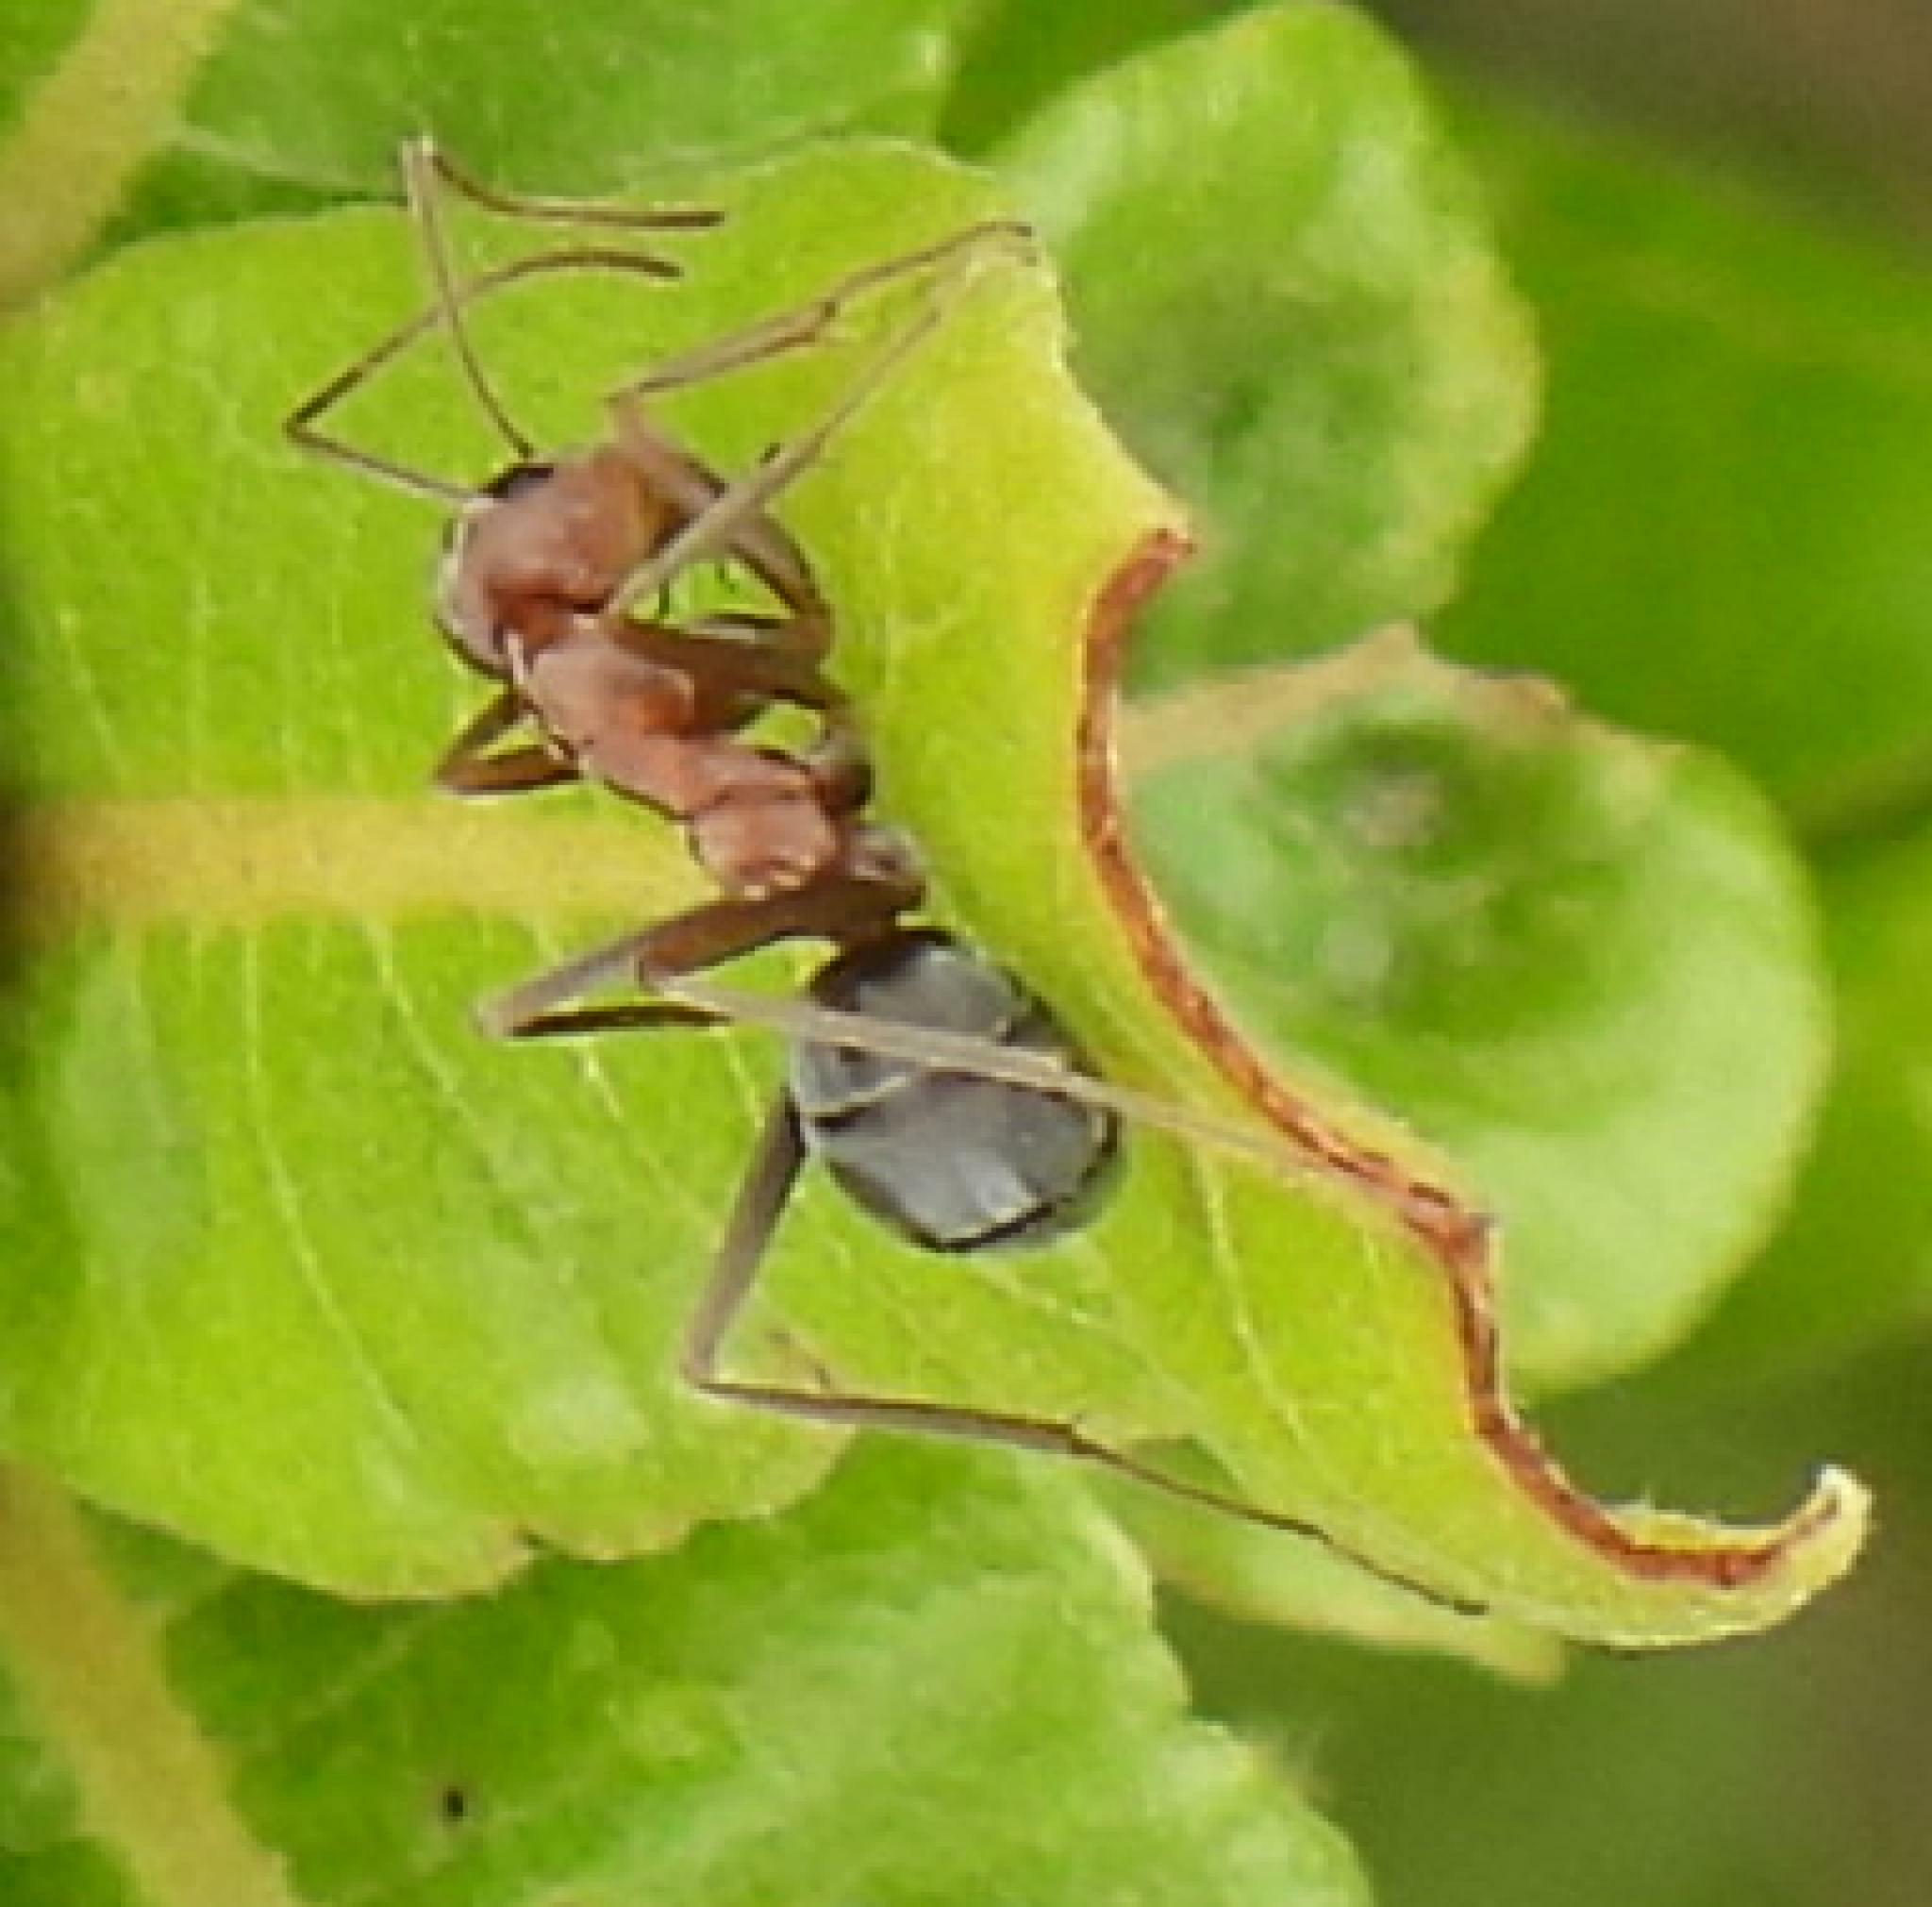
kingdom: Animalia
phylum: Arthropoda
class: Insecta
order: Hymenoptera
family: Formicidae
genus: Anoplolepis
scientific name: Anoplolepis custodiens
